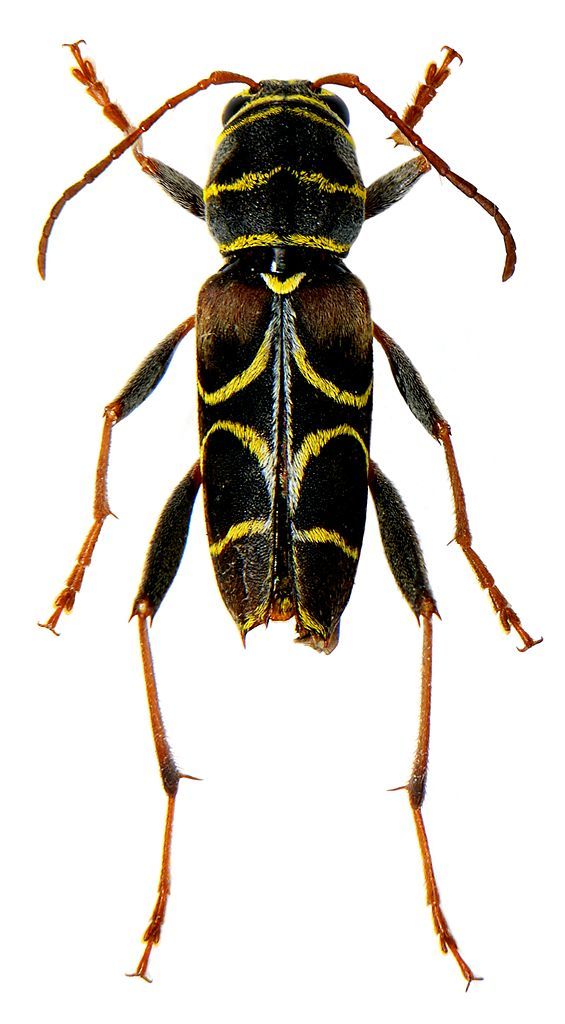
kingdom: Animalia
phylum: Arthropoda
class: Insecta
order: Coleoptera
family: Cerambycidae
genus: Neoclytus
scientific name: Neoclytus scutellaris
